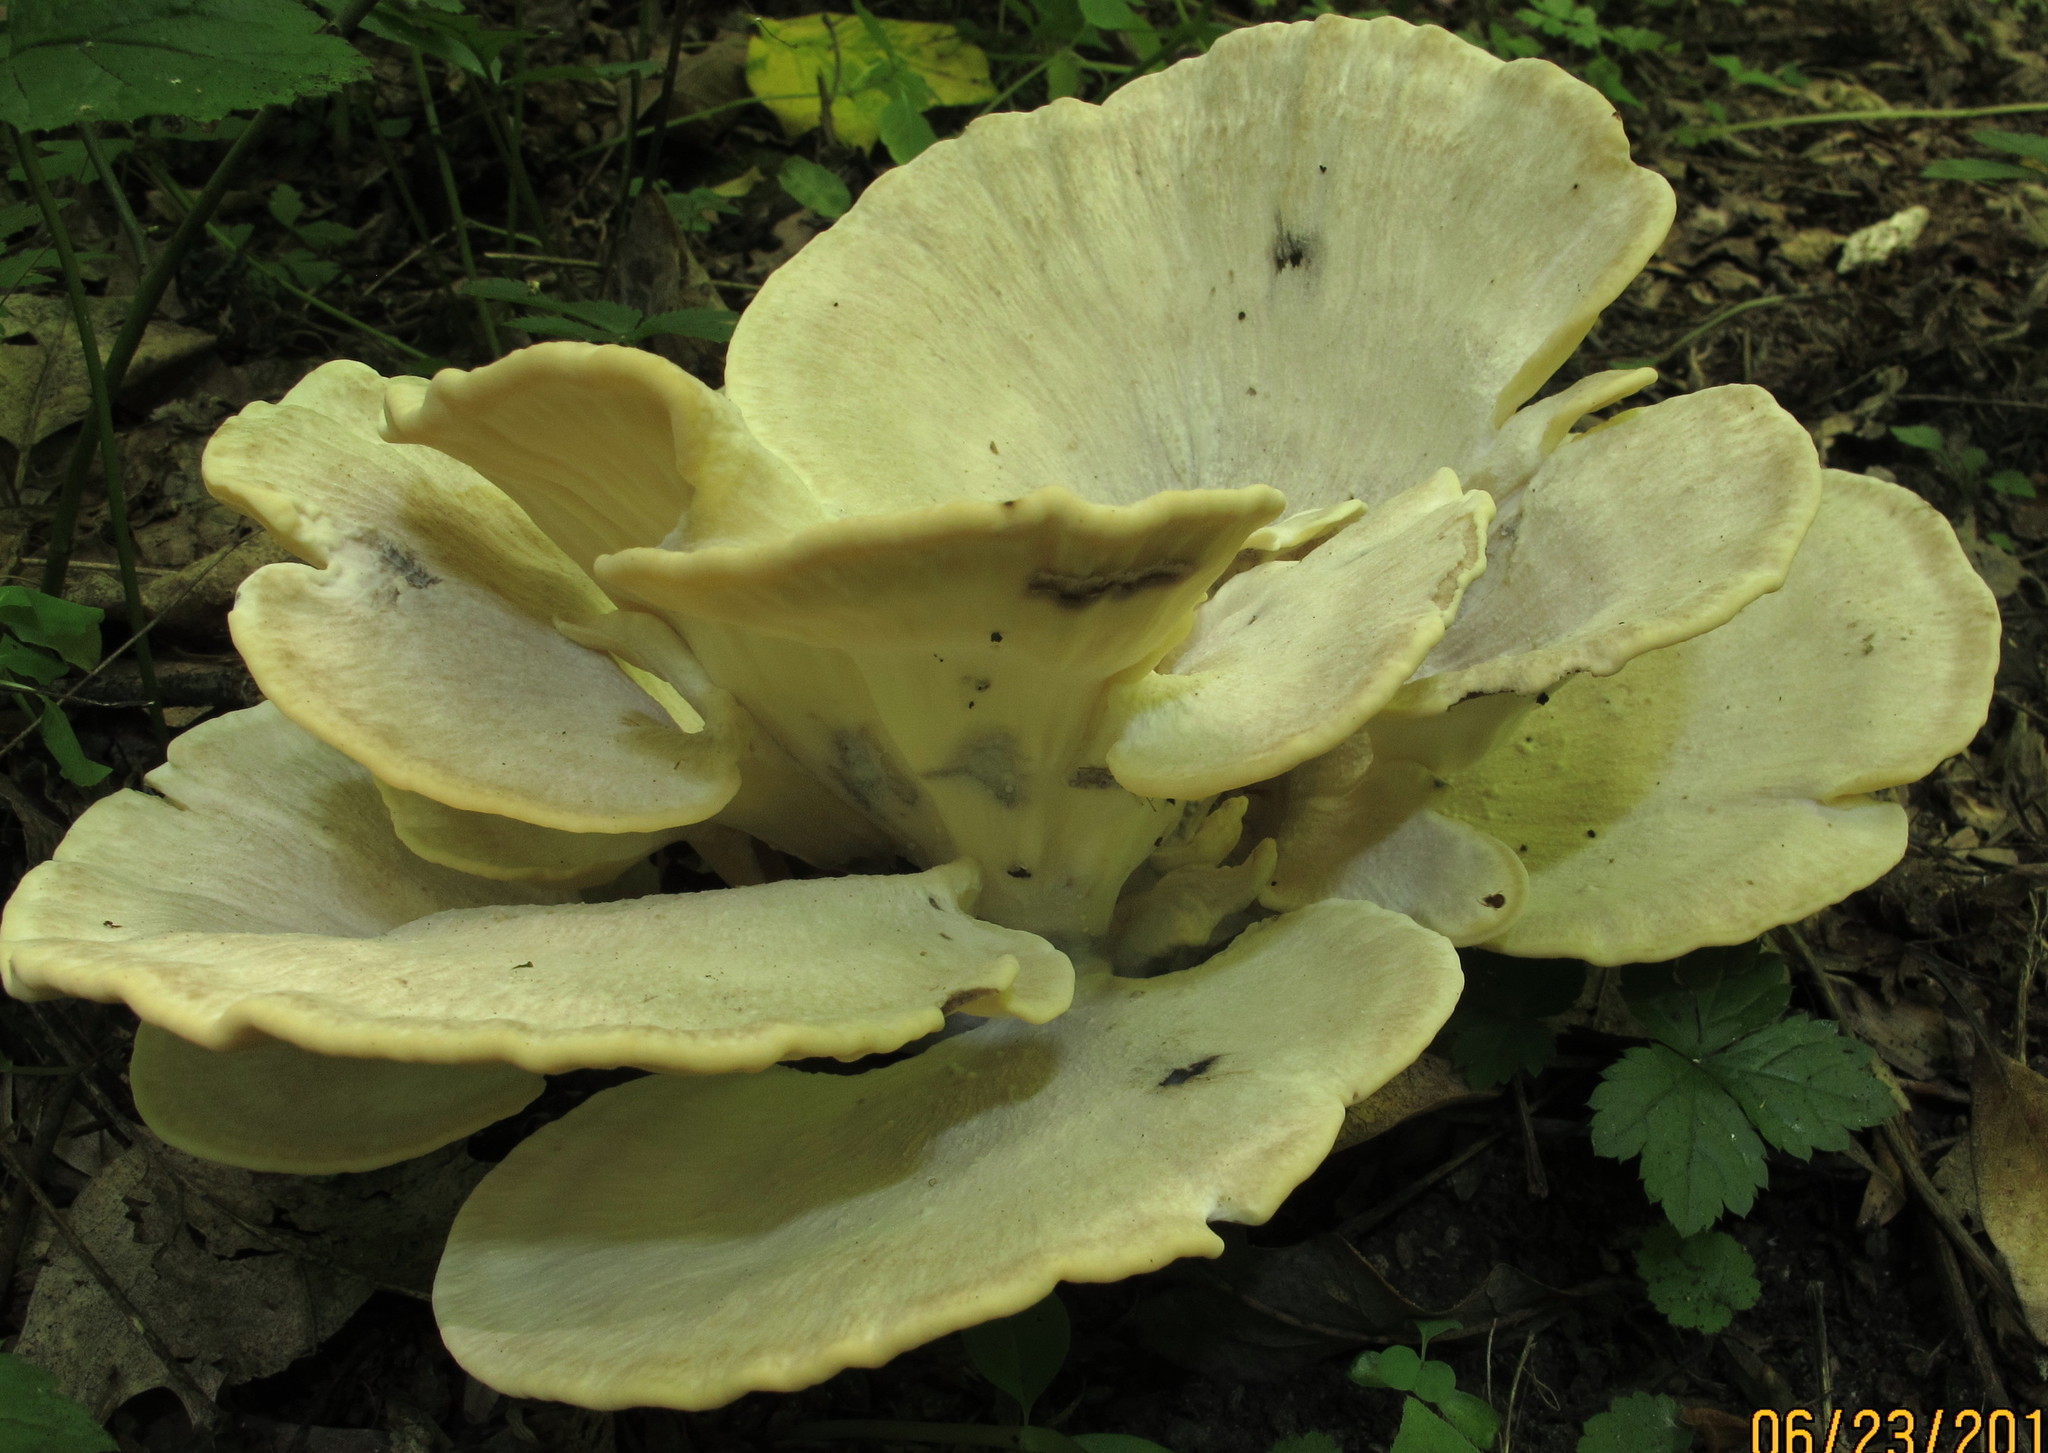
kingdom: Fungi
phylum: Basidiomycota
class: Agaricomycetes
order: Polyporales
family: Meripilaceae
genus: Meripilus
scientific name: Meripilus sumstinei
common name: Black-staining polypore
